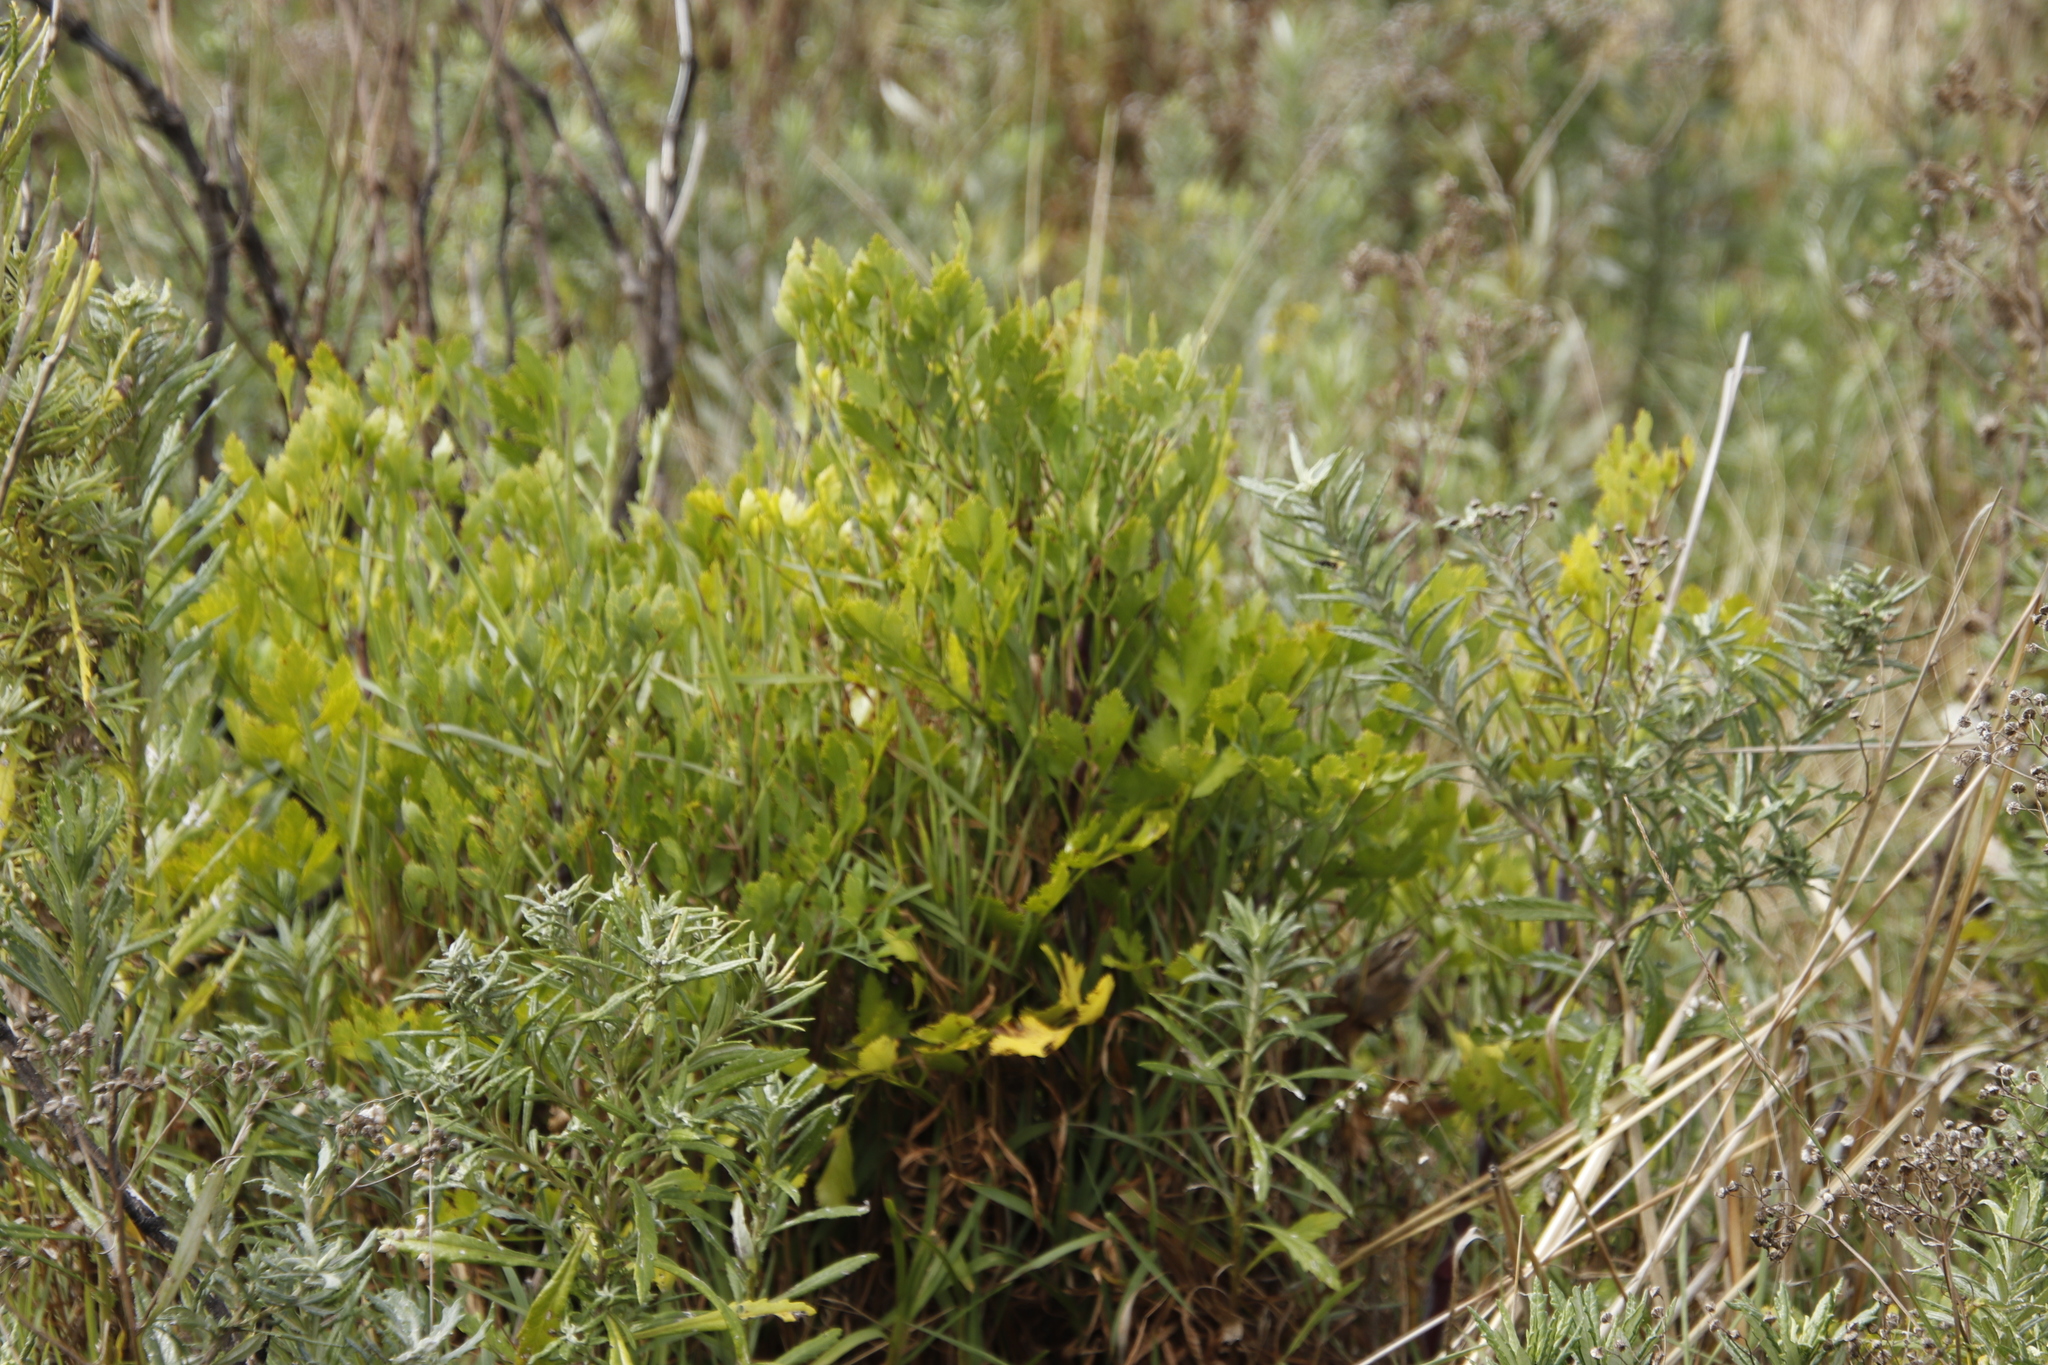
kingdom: Plantae
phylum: Tracheophyta
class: Magnoliopsida
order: Apiales
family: Apiaceae
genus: Notobubon
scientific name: Notobubon galbanum
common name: Blisterbush
